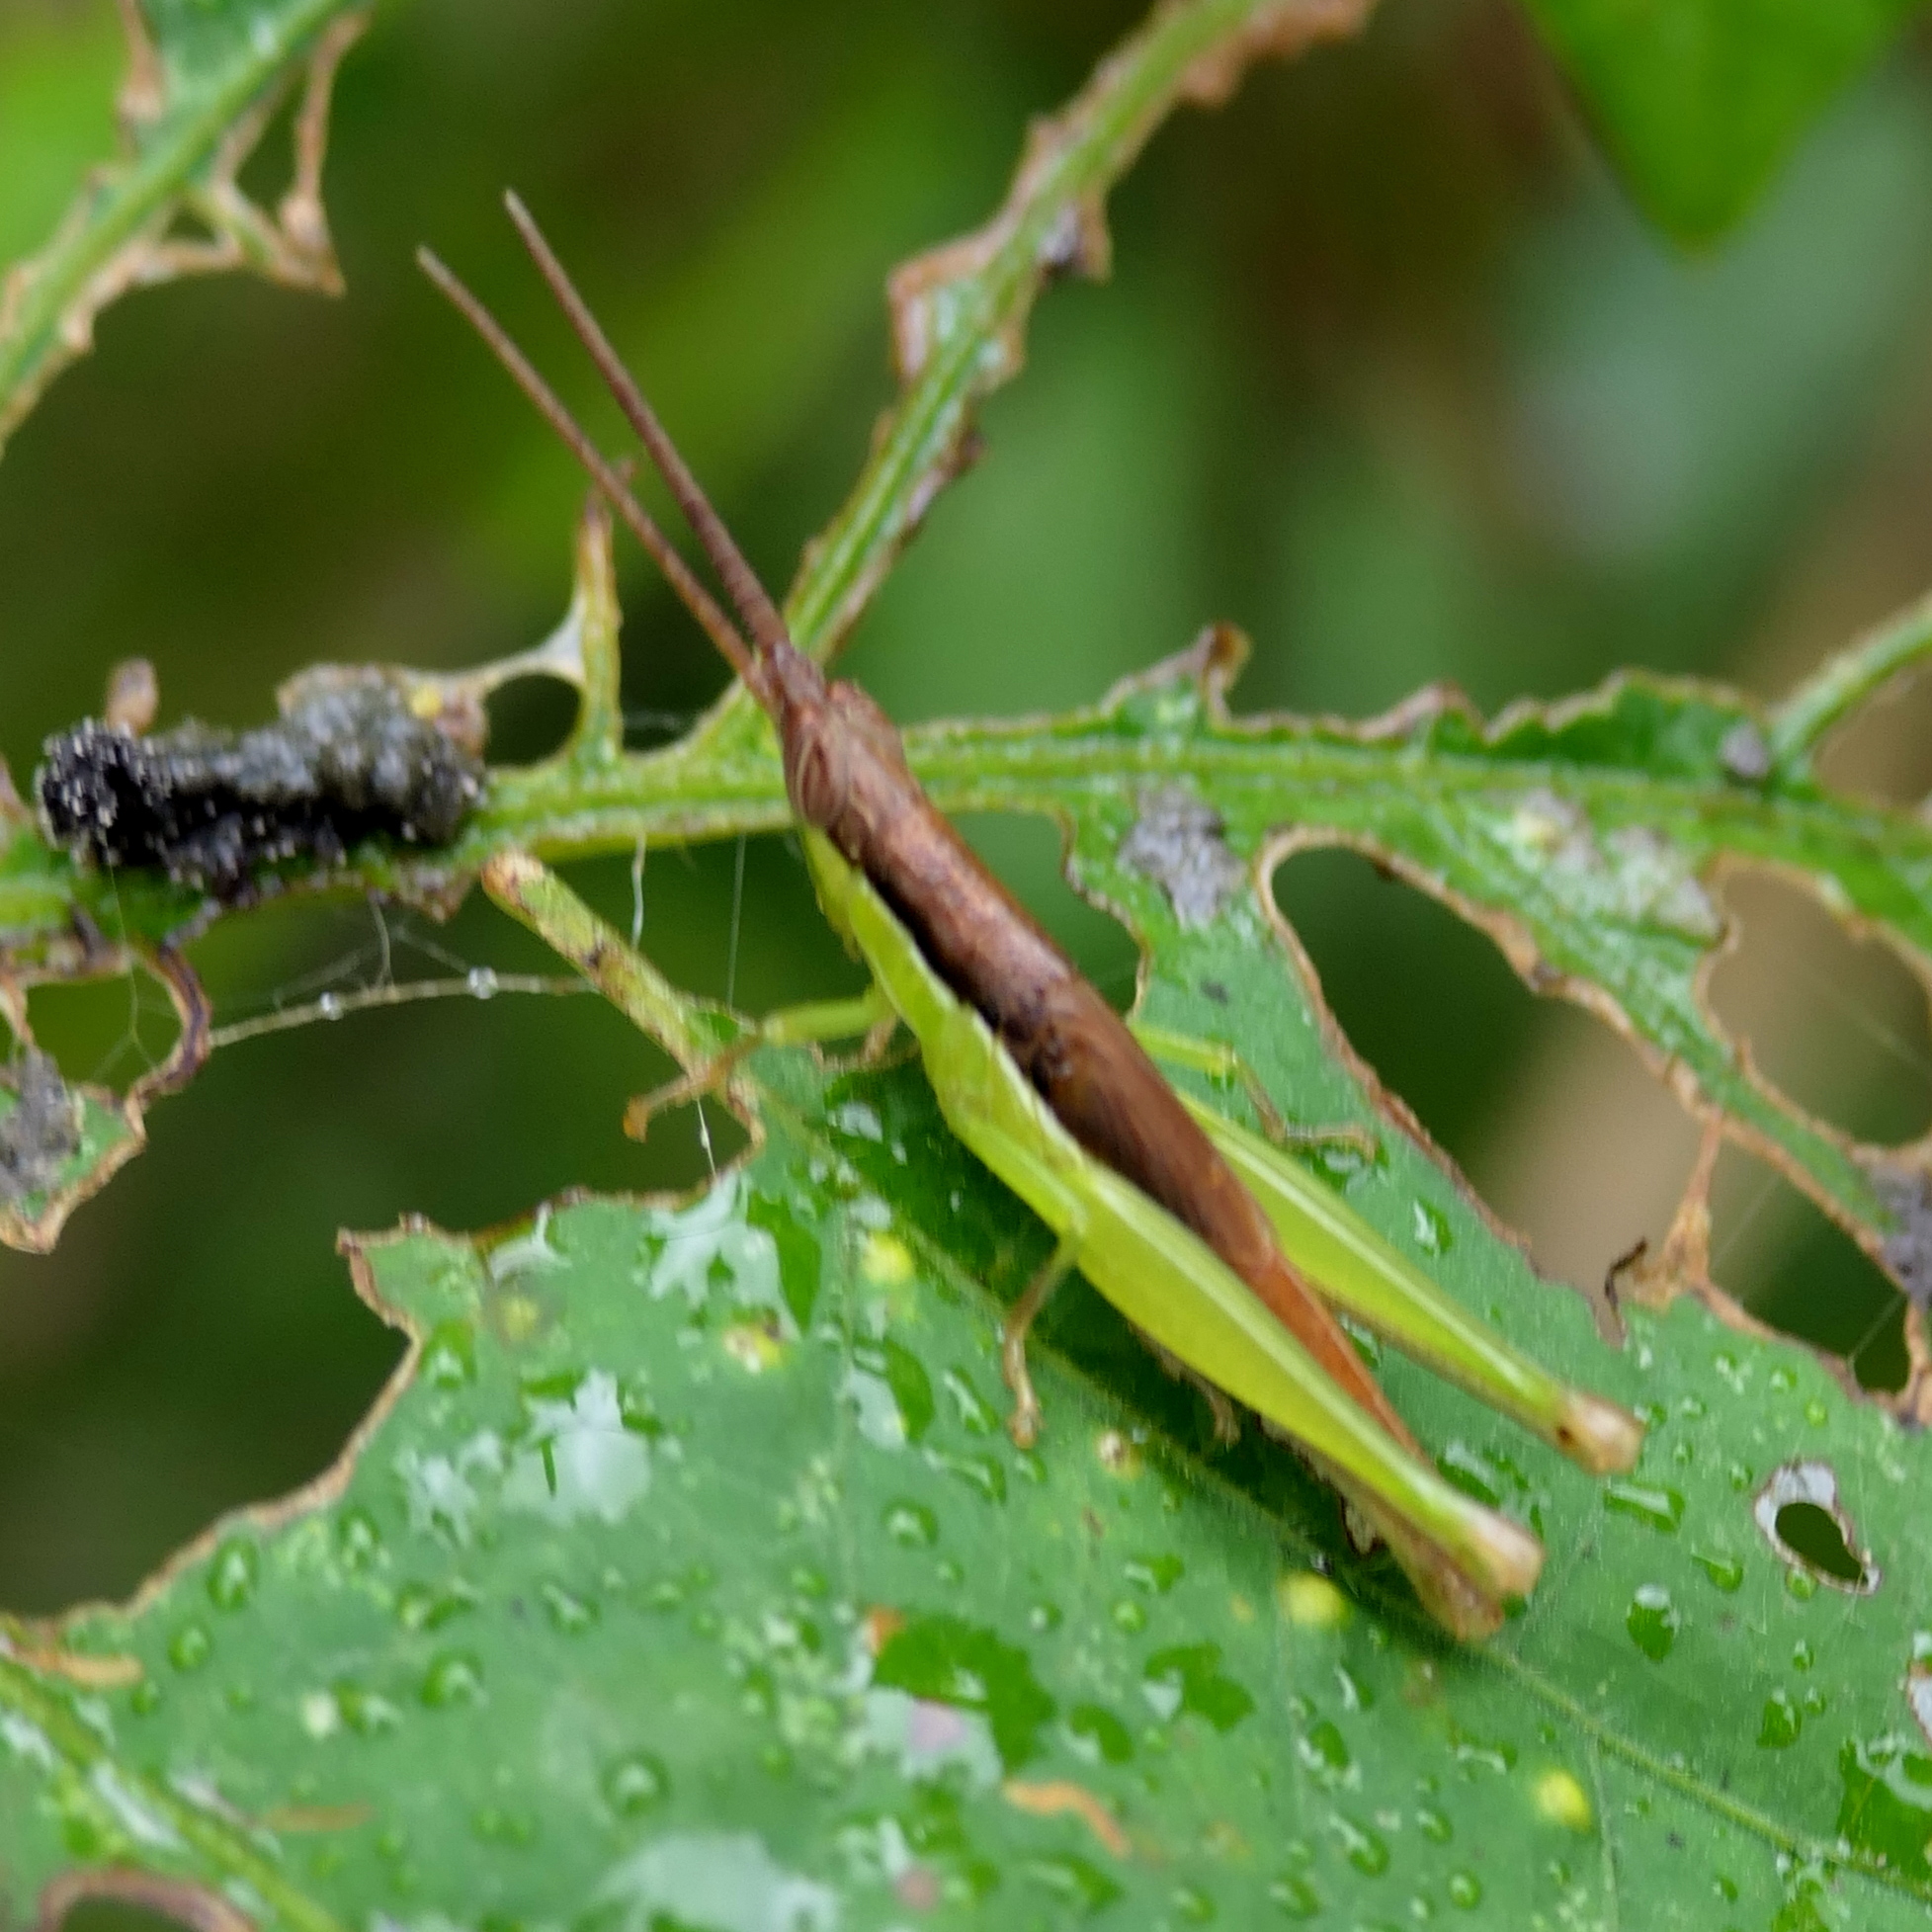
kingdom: Animalia
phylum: Arthropoda
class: Insecta
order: Orthoptera
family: Acrididae
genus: Stenopola
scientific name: Stenopola dorsalis
